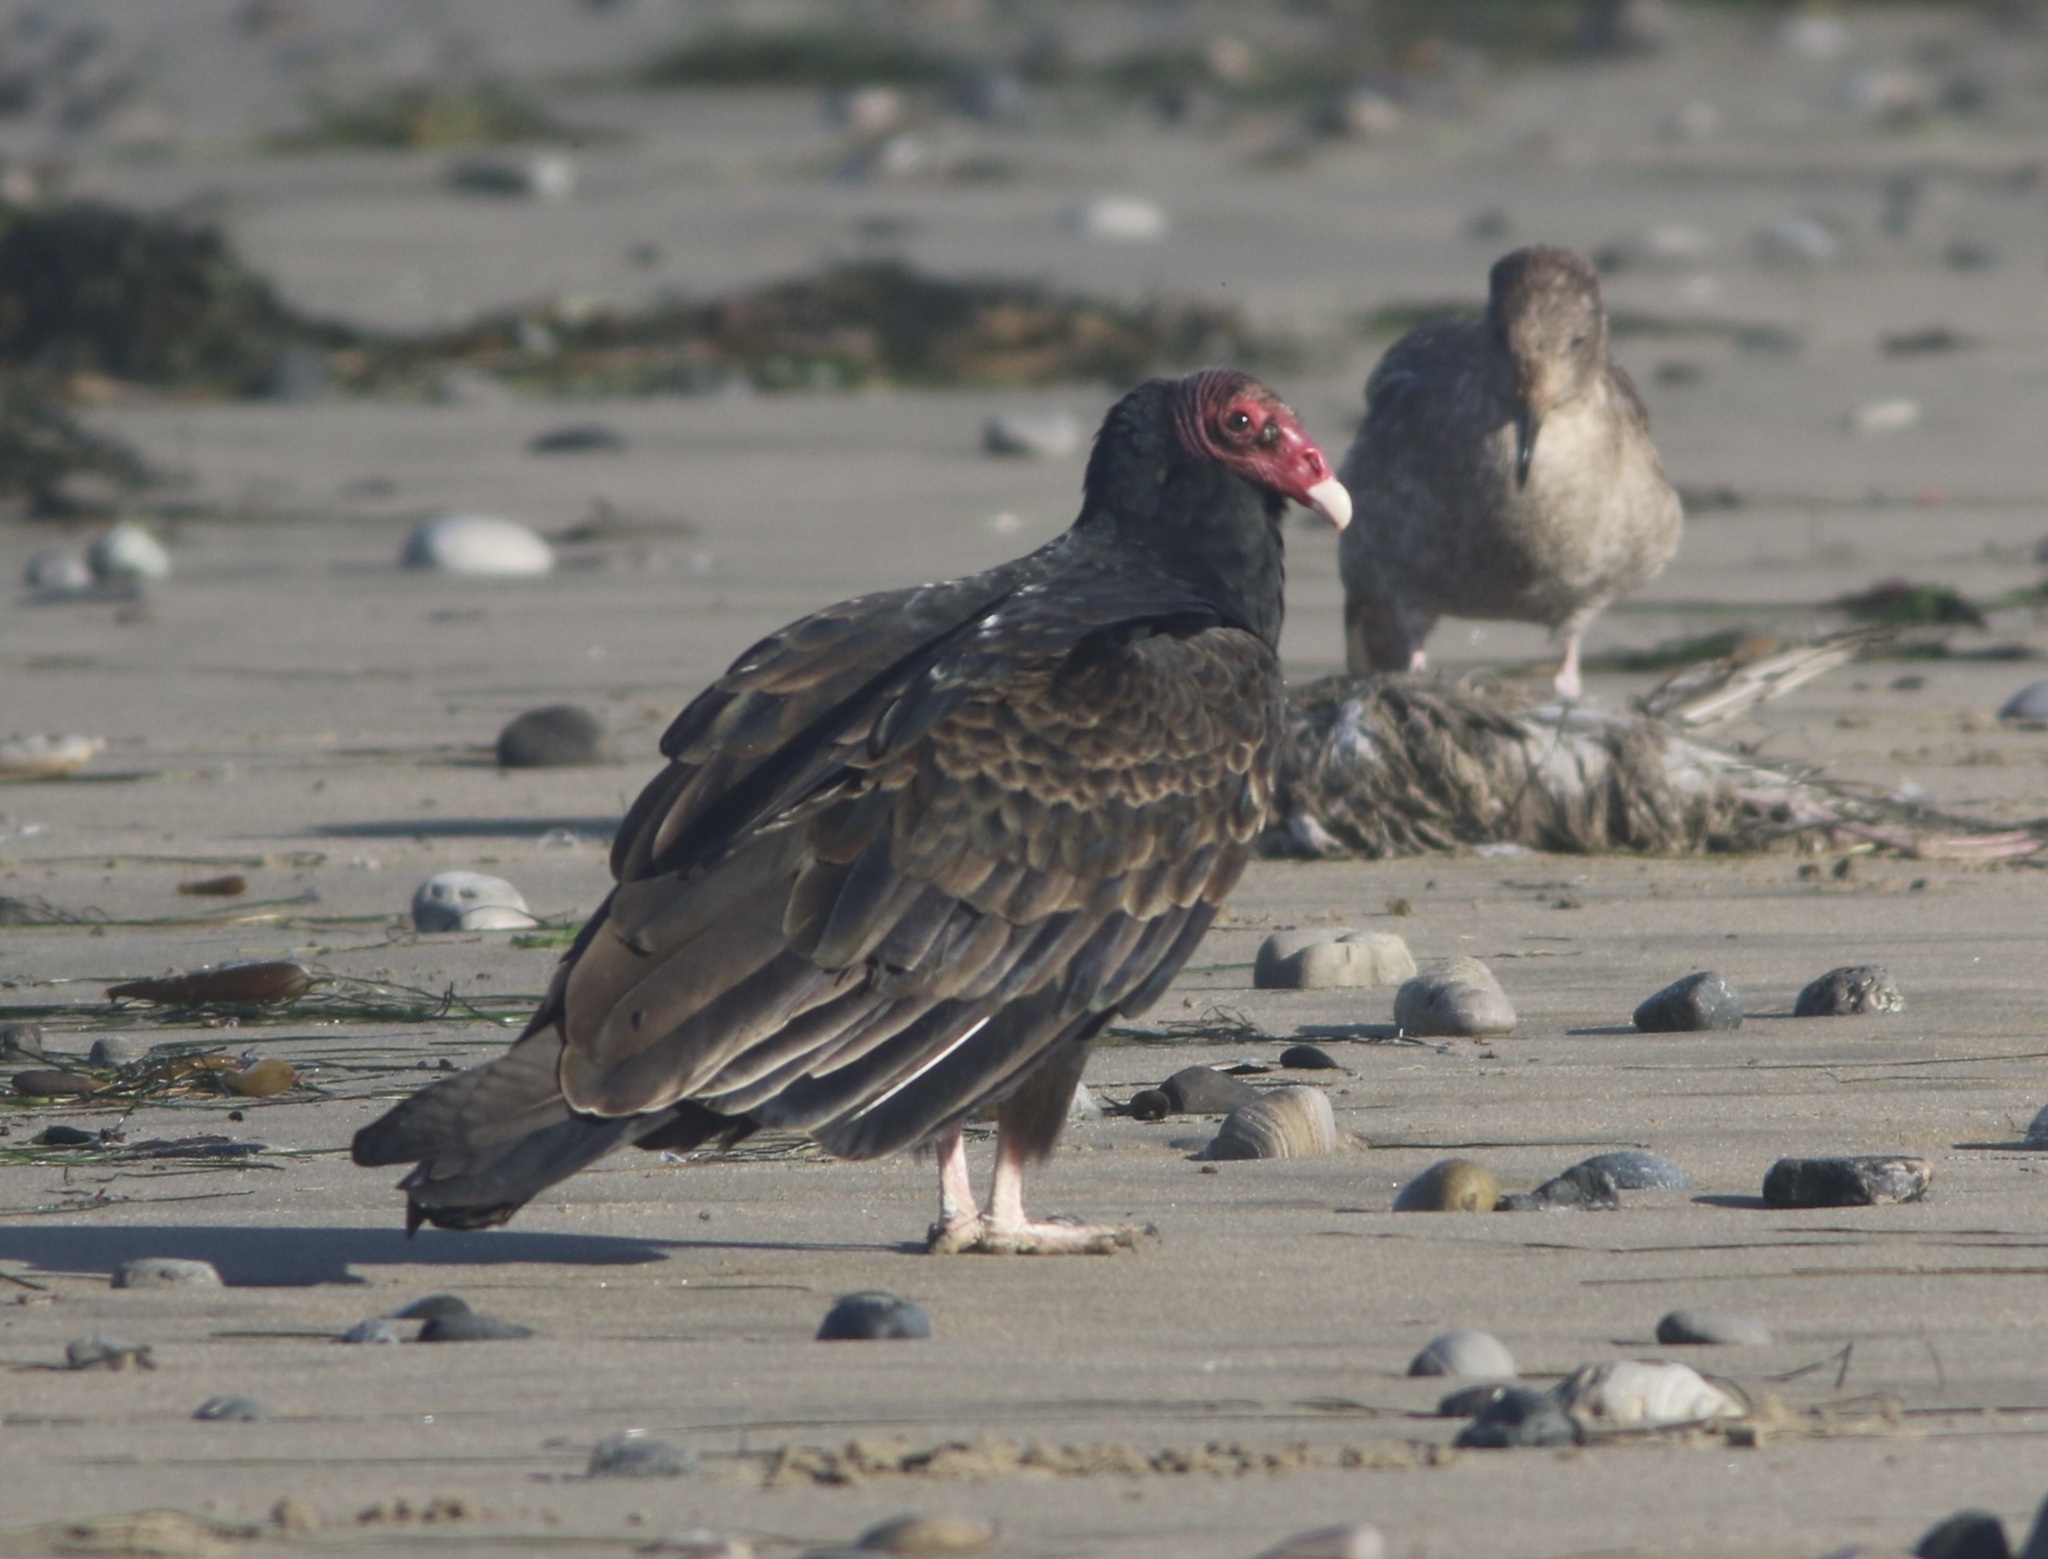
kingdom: Animalia
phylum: Chordata
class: Aves
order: Accipitriformes
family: Cathartidae
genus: Cathartes
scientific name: Cathartes aura
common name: Turkey vulture
